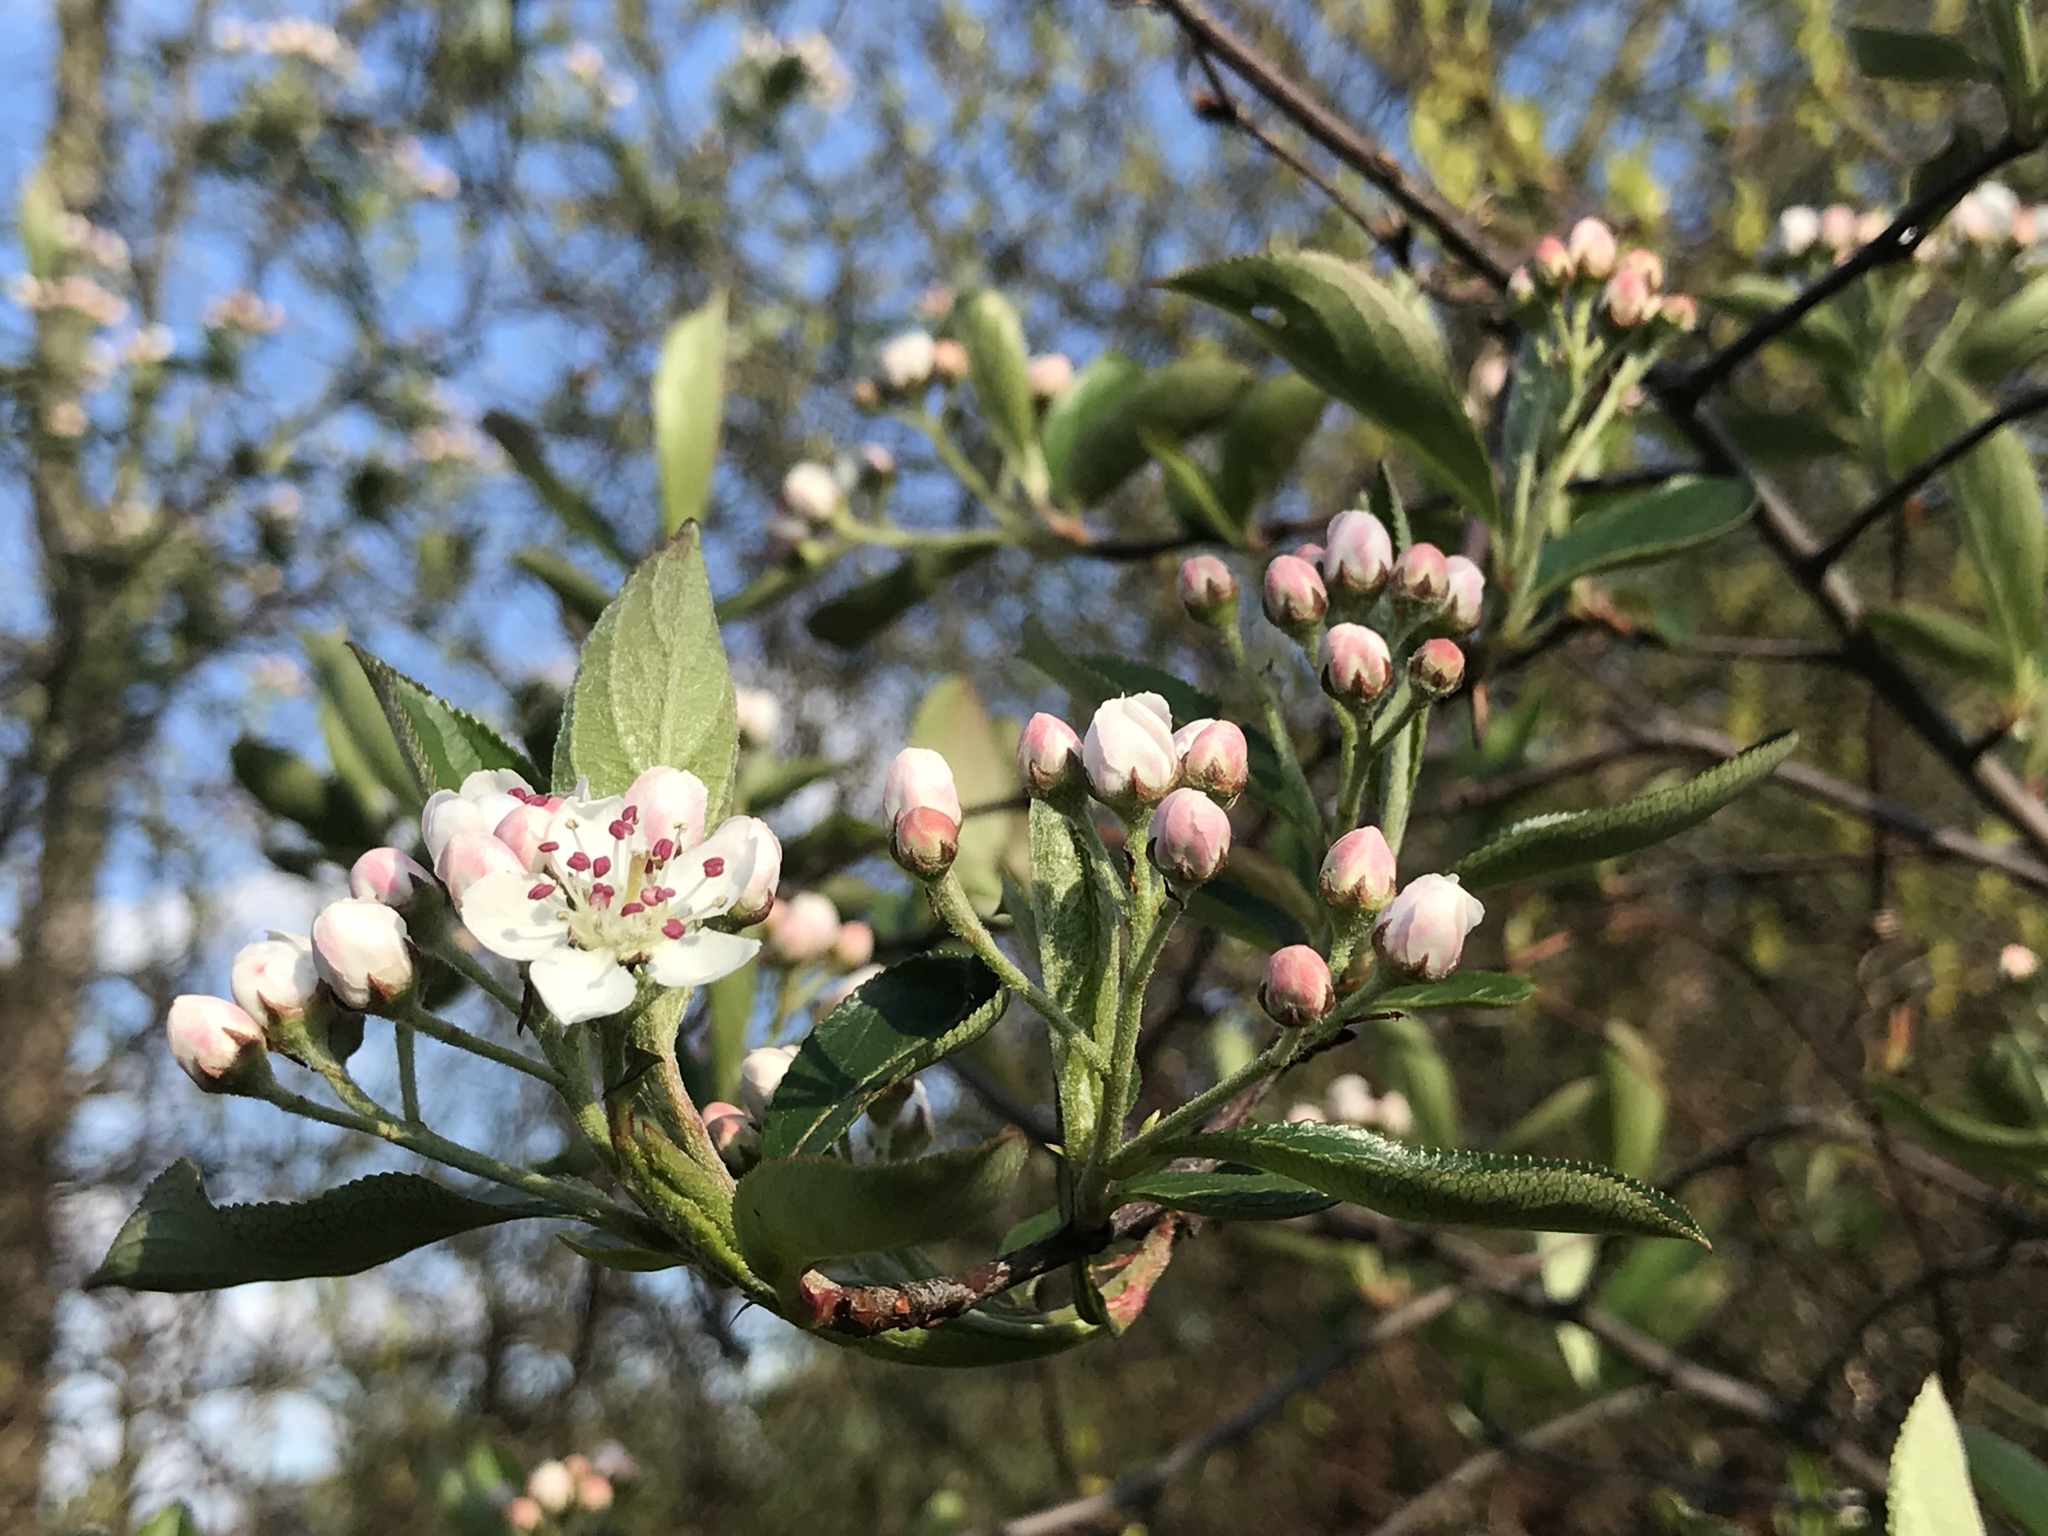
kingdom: Plantae
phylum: Tracheophyta
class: Magnoliopsida
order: Rosales
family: Rosaceae
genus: Aronia
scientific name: Aronia arbutifolia
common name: Red chokeberry
